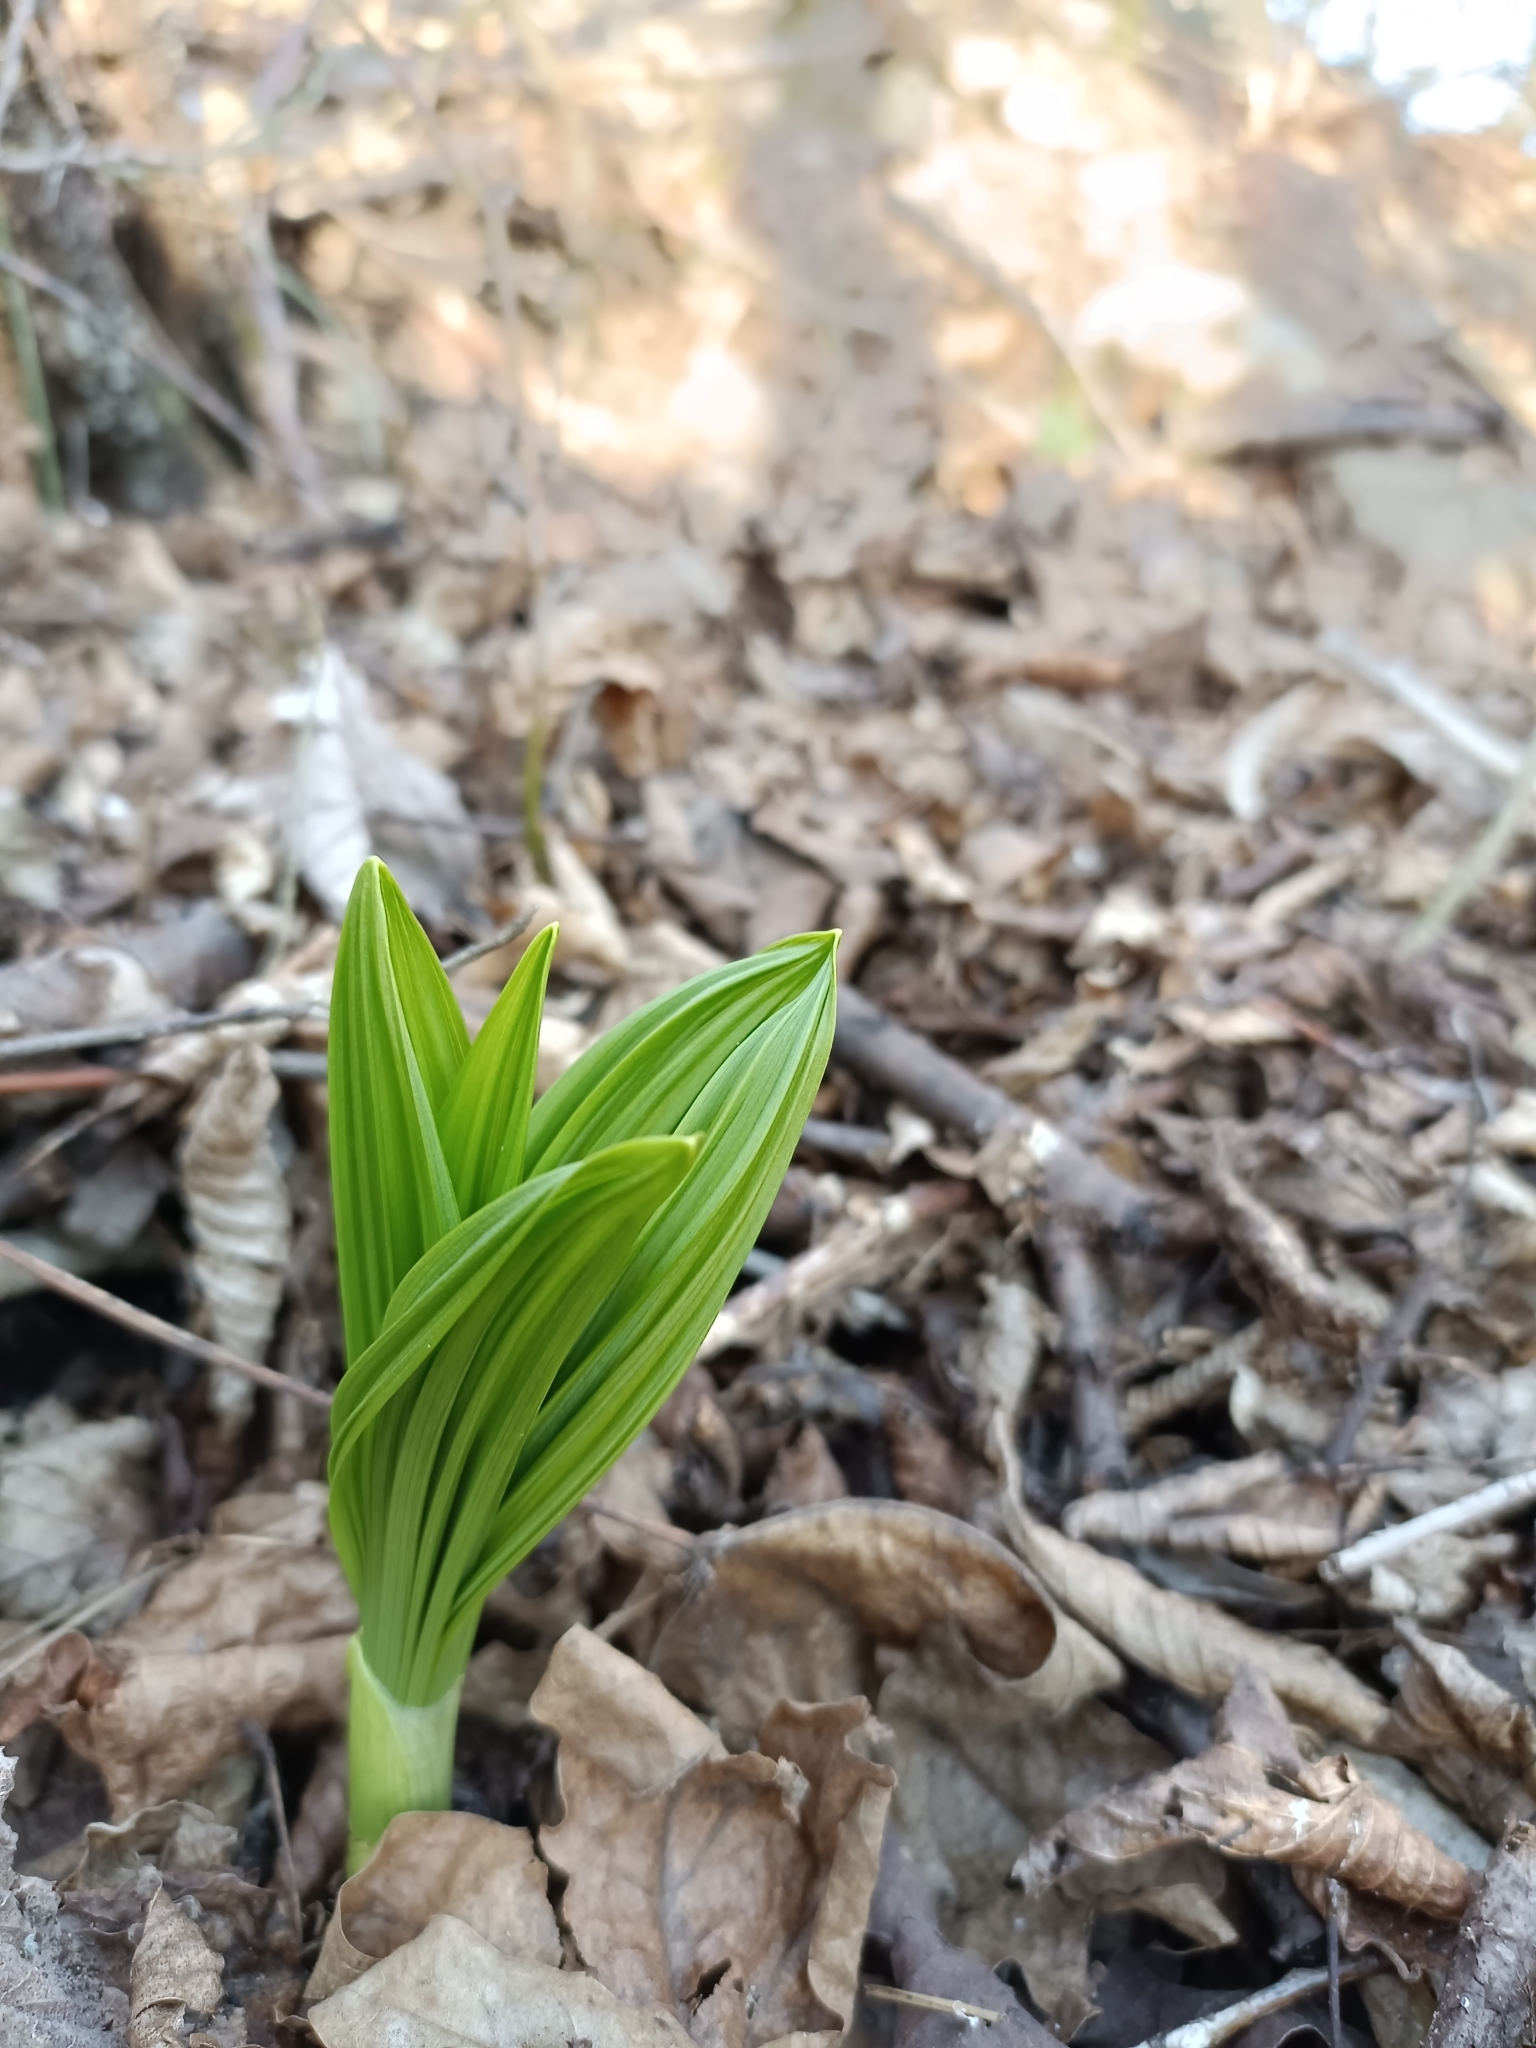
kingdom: Plantae
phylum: Tracheophyta
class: Liliopsida
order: Liliales
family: Melanthiaceae
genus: Veratrum
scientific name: Veratrum nigrum
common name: Black veratrum
